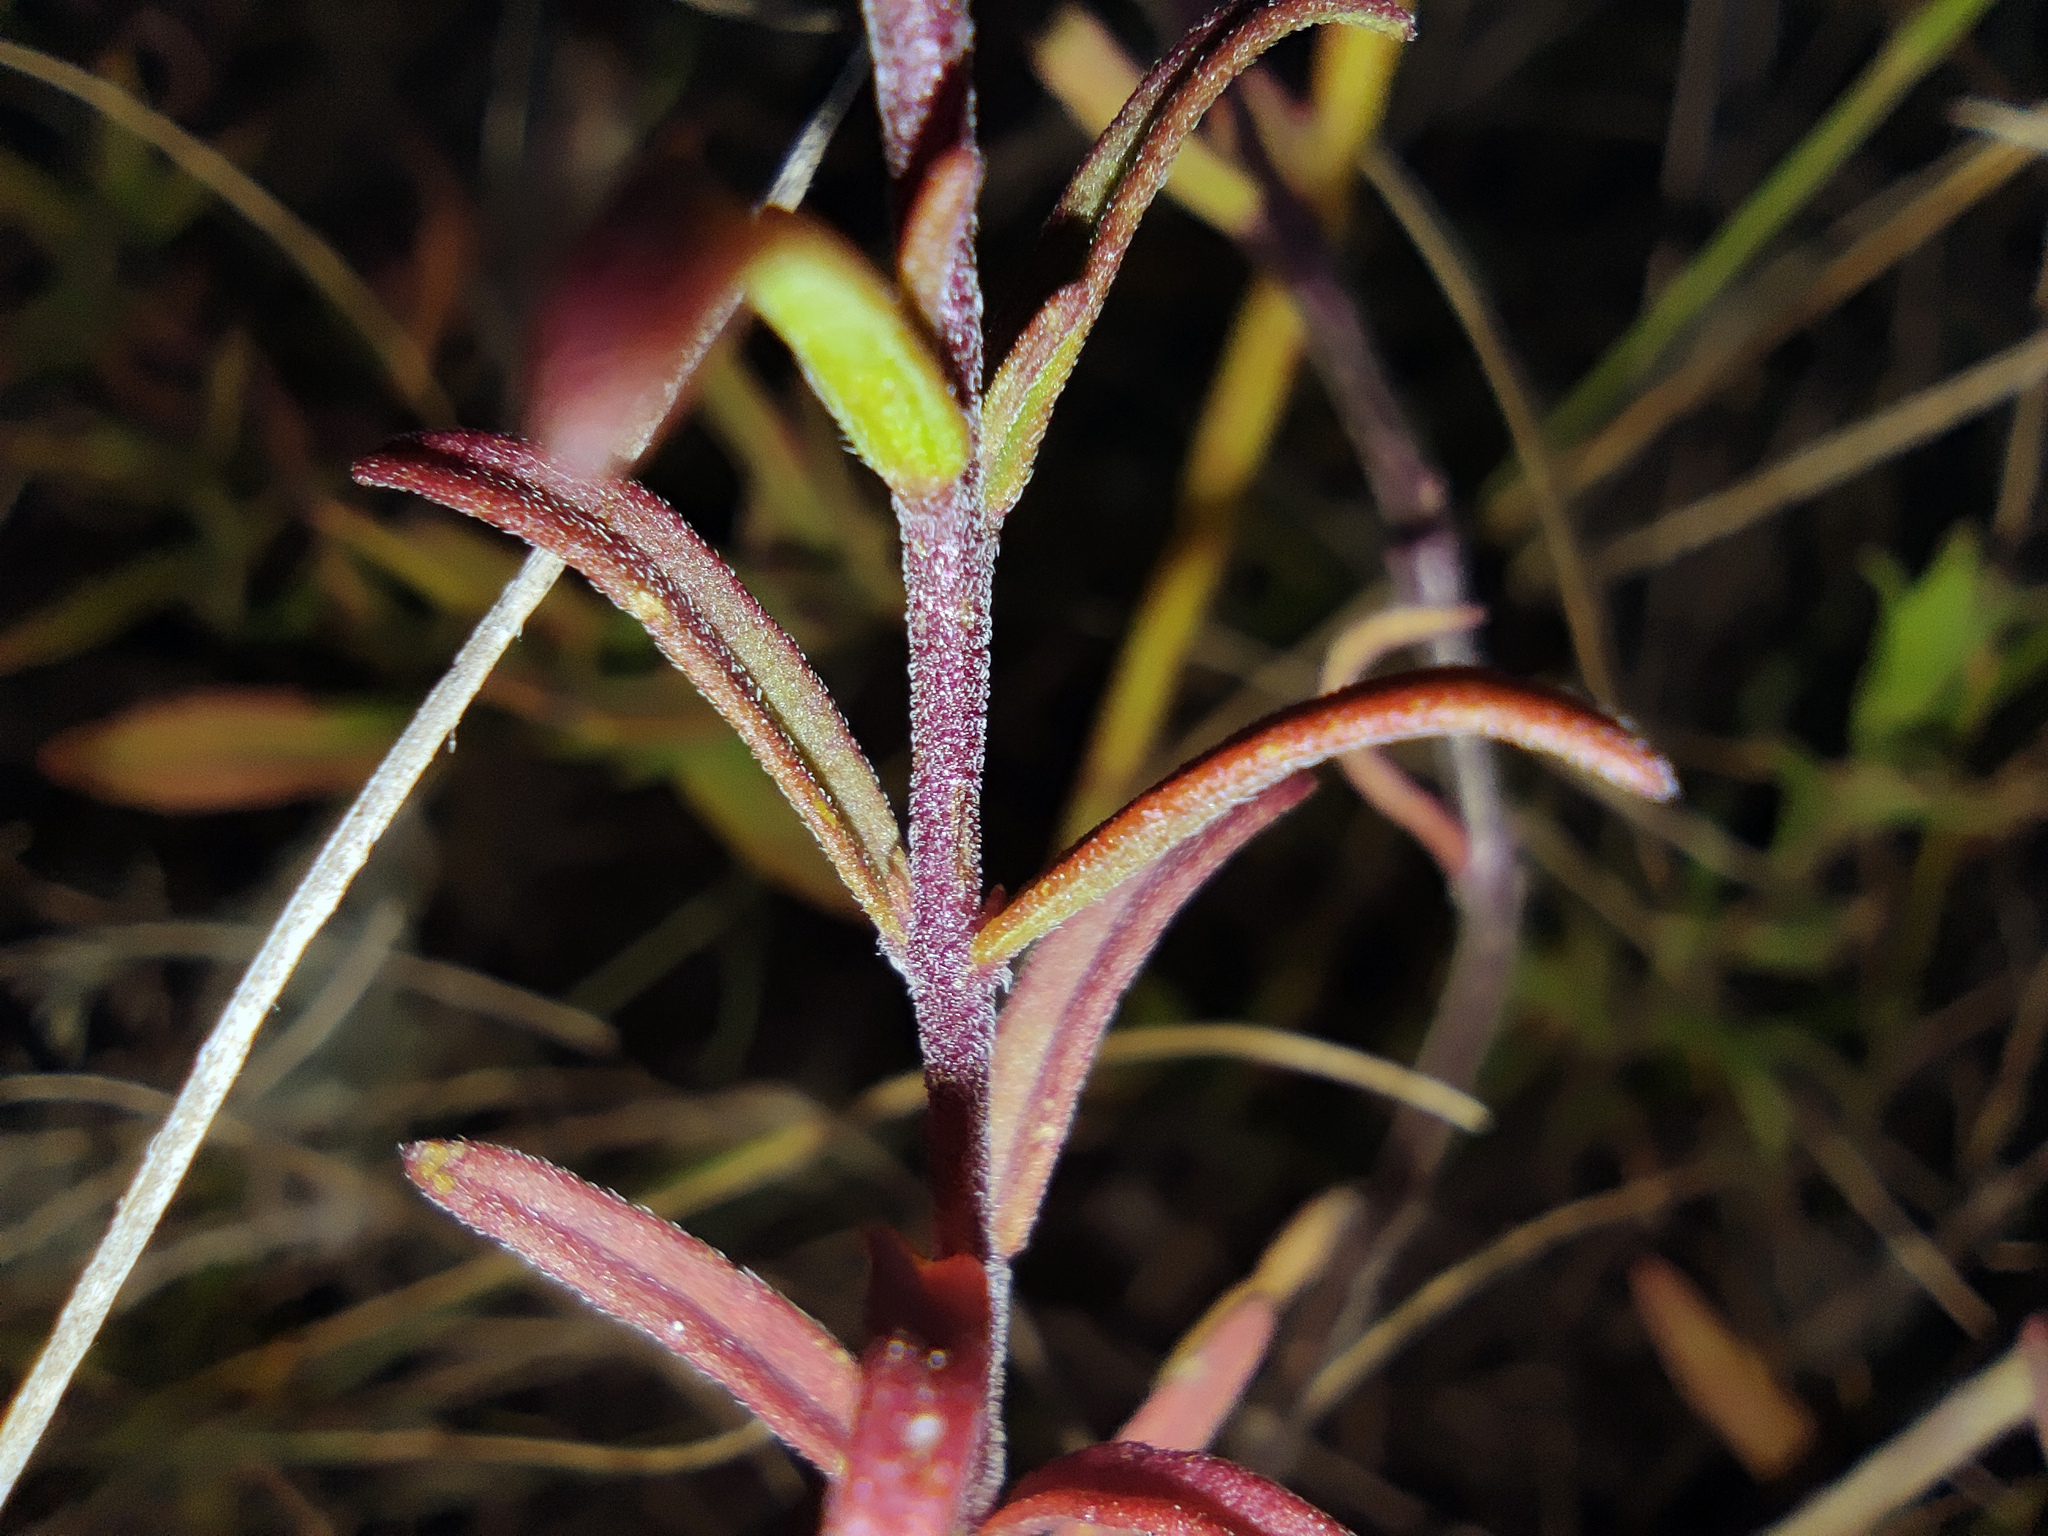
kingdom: Plantae
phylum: Tracheophyta
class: Magnoliopsida
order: Lamiales
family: Orobanchaceae
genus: Odontites
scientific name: Odontites luteus
